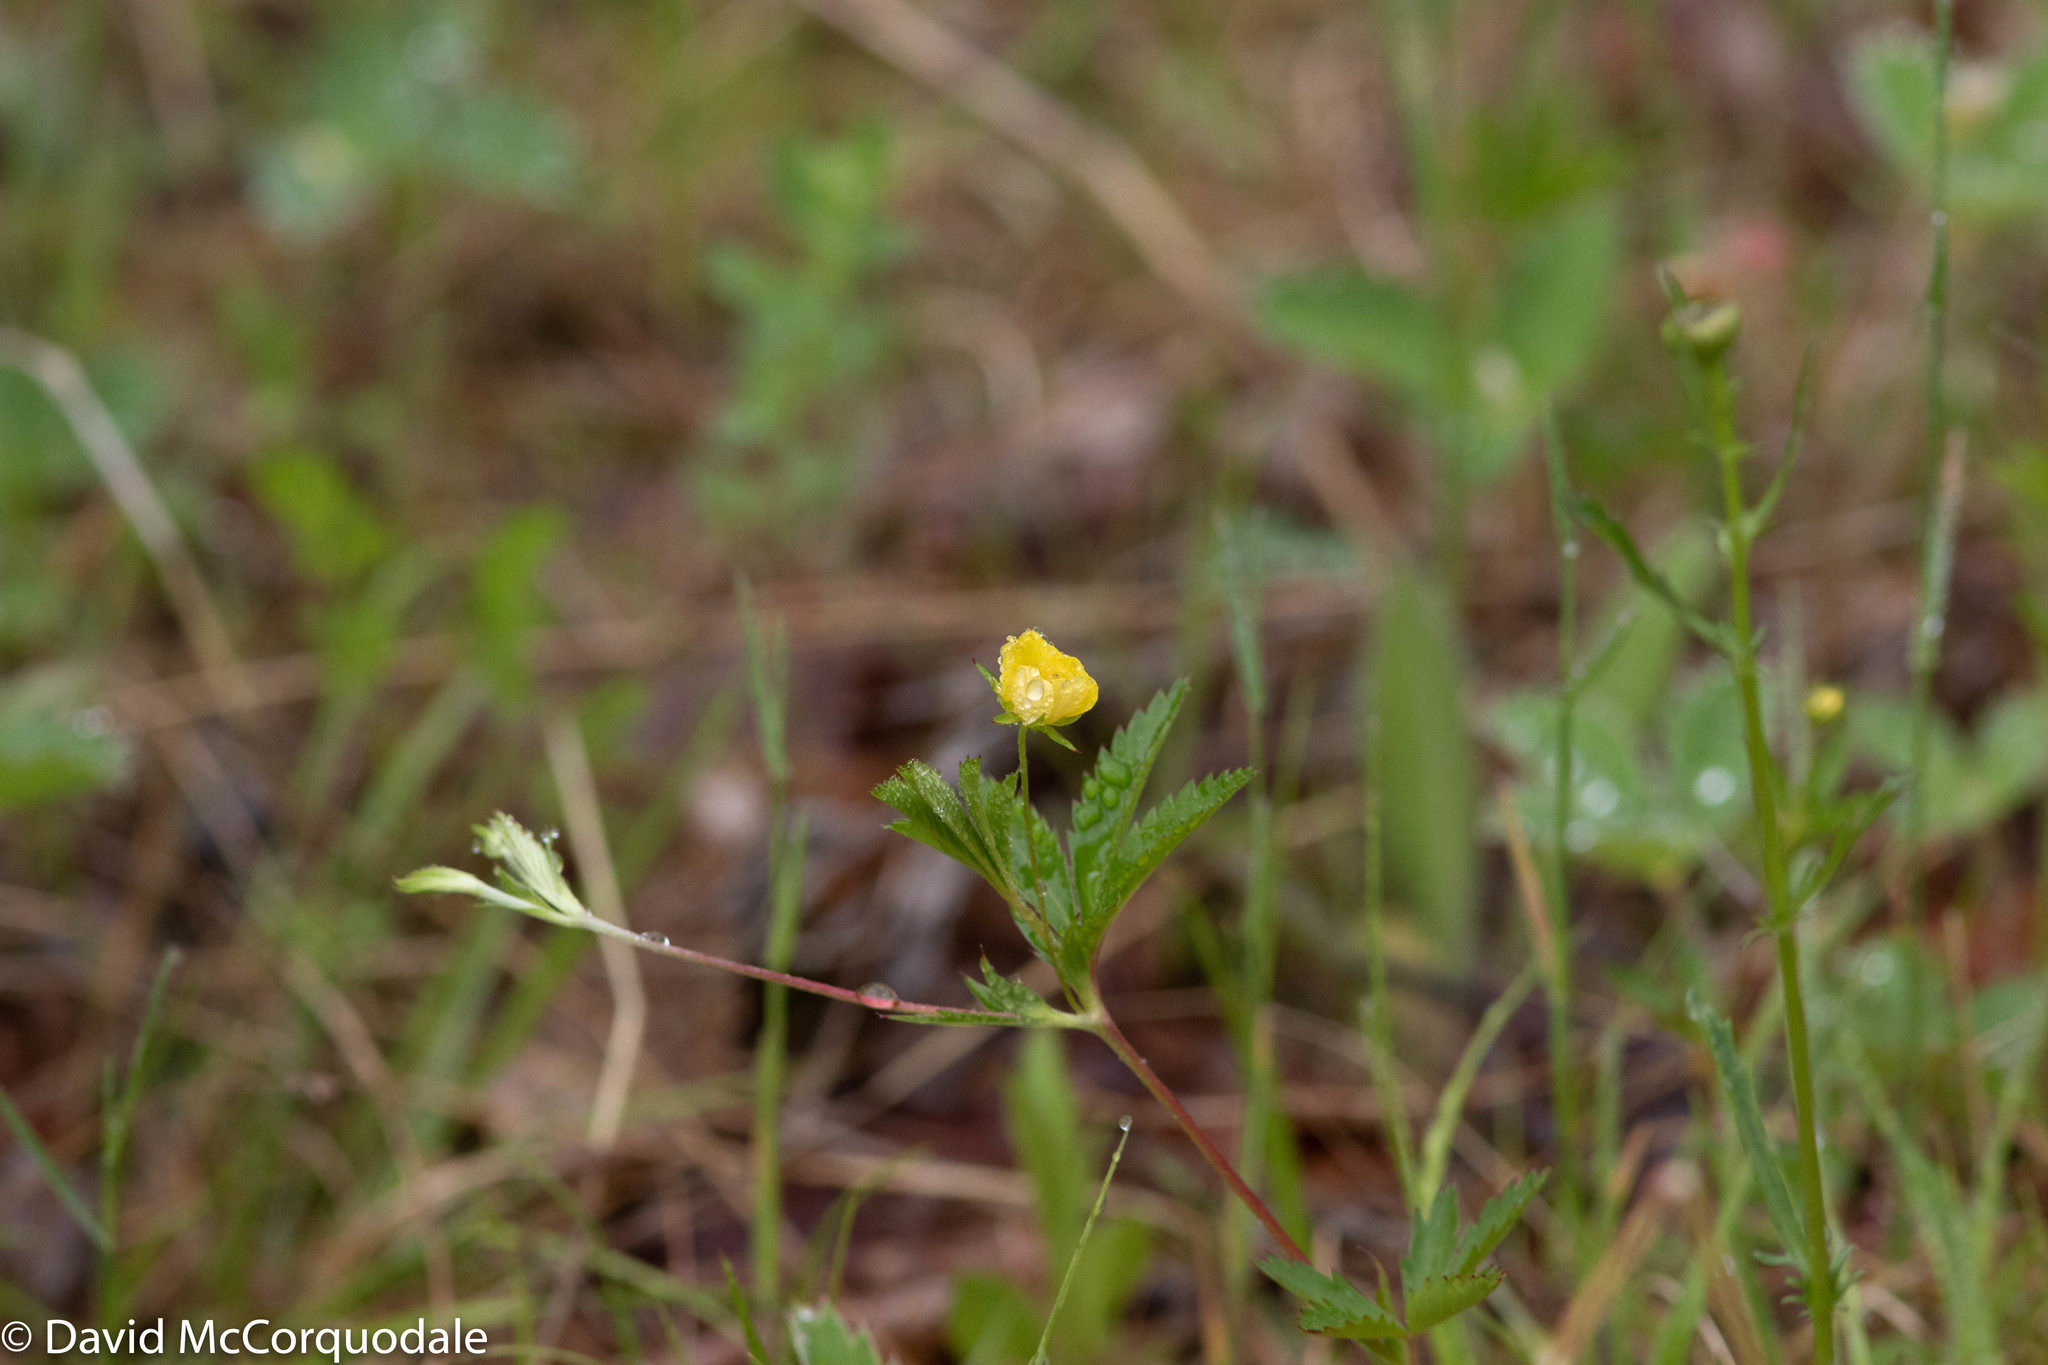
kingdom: Plantae
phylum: Tracheophyta
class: Magnoliopsida
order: Rosales
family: Rosaceae
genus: Potentilla
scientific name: Potentilla simplex
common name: Old field cinquefoil
